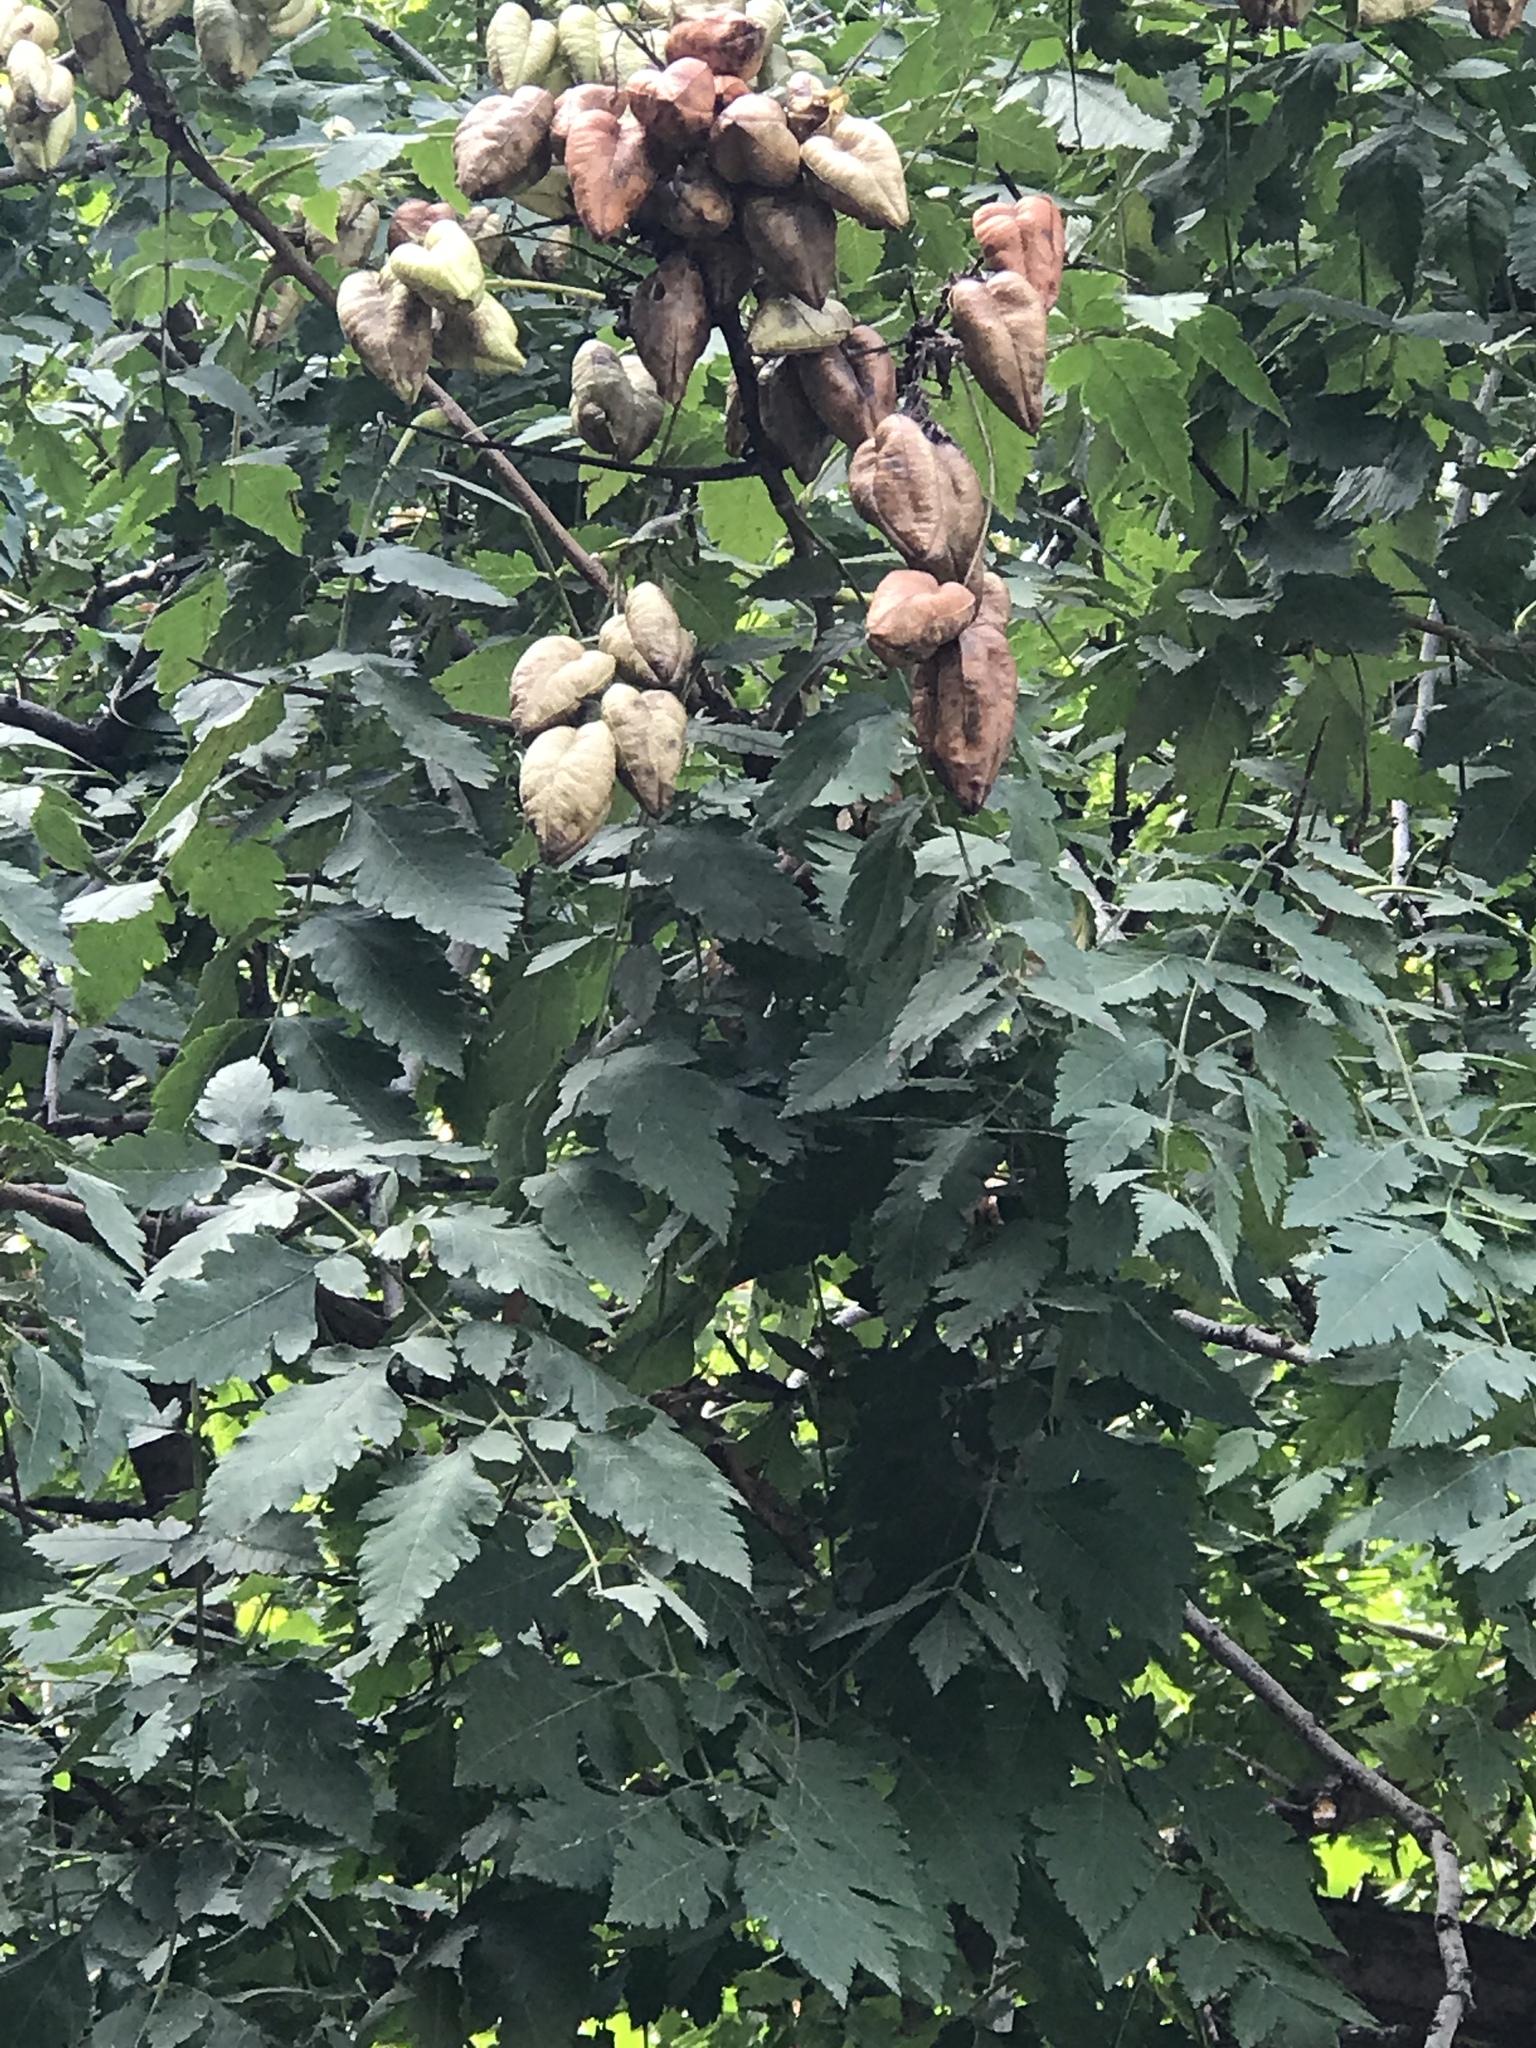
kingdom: Plantae
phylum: Tracheophyta
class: Magnoliopsida
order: Sapindales
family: Sapindaceae
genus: Koelreuteria
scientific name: Koelreuteria paniculata
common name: Pride-of-india
